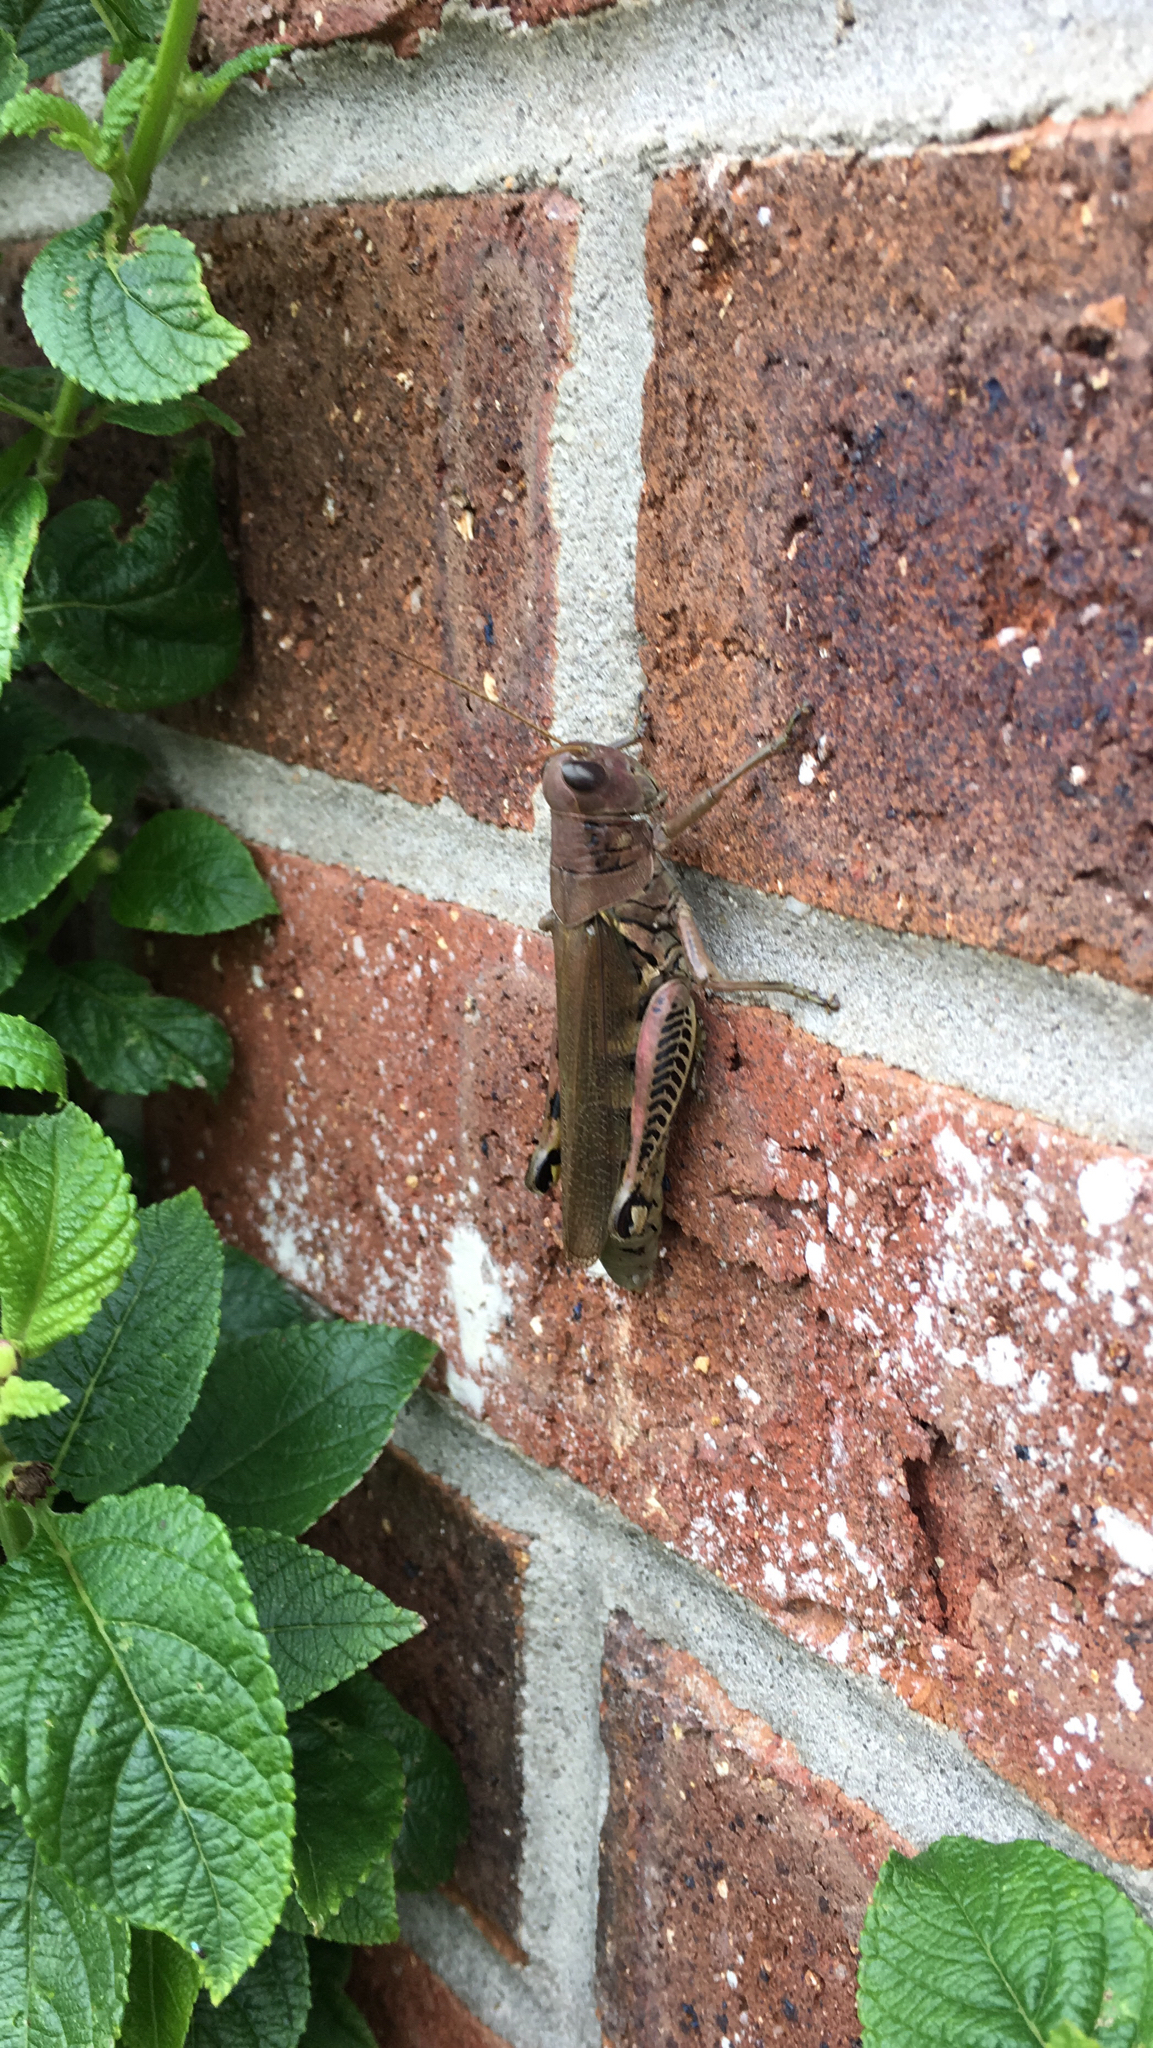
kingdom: Animalia
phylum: Arthropoda
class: Insecta
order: Orthoptera
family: Acrididae
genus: Melanoplus
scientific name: Melanoplus differentialis
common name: Differential grasshopper
